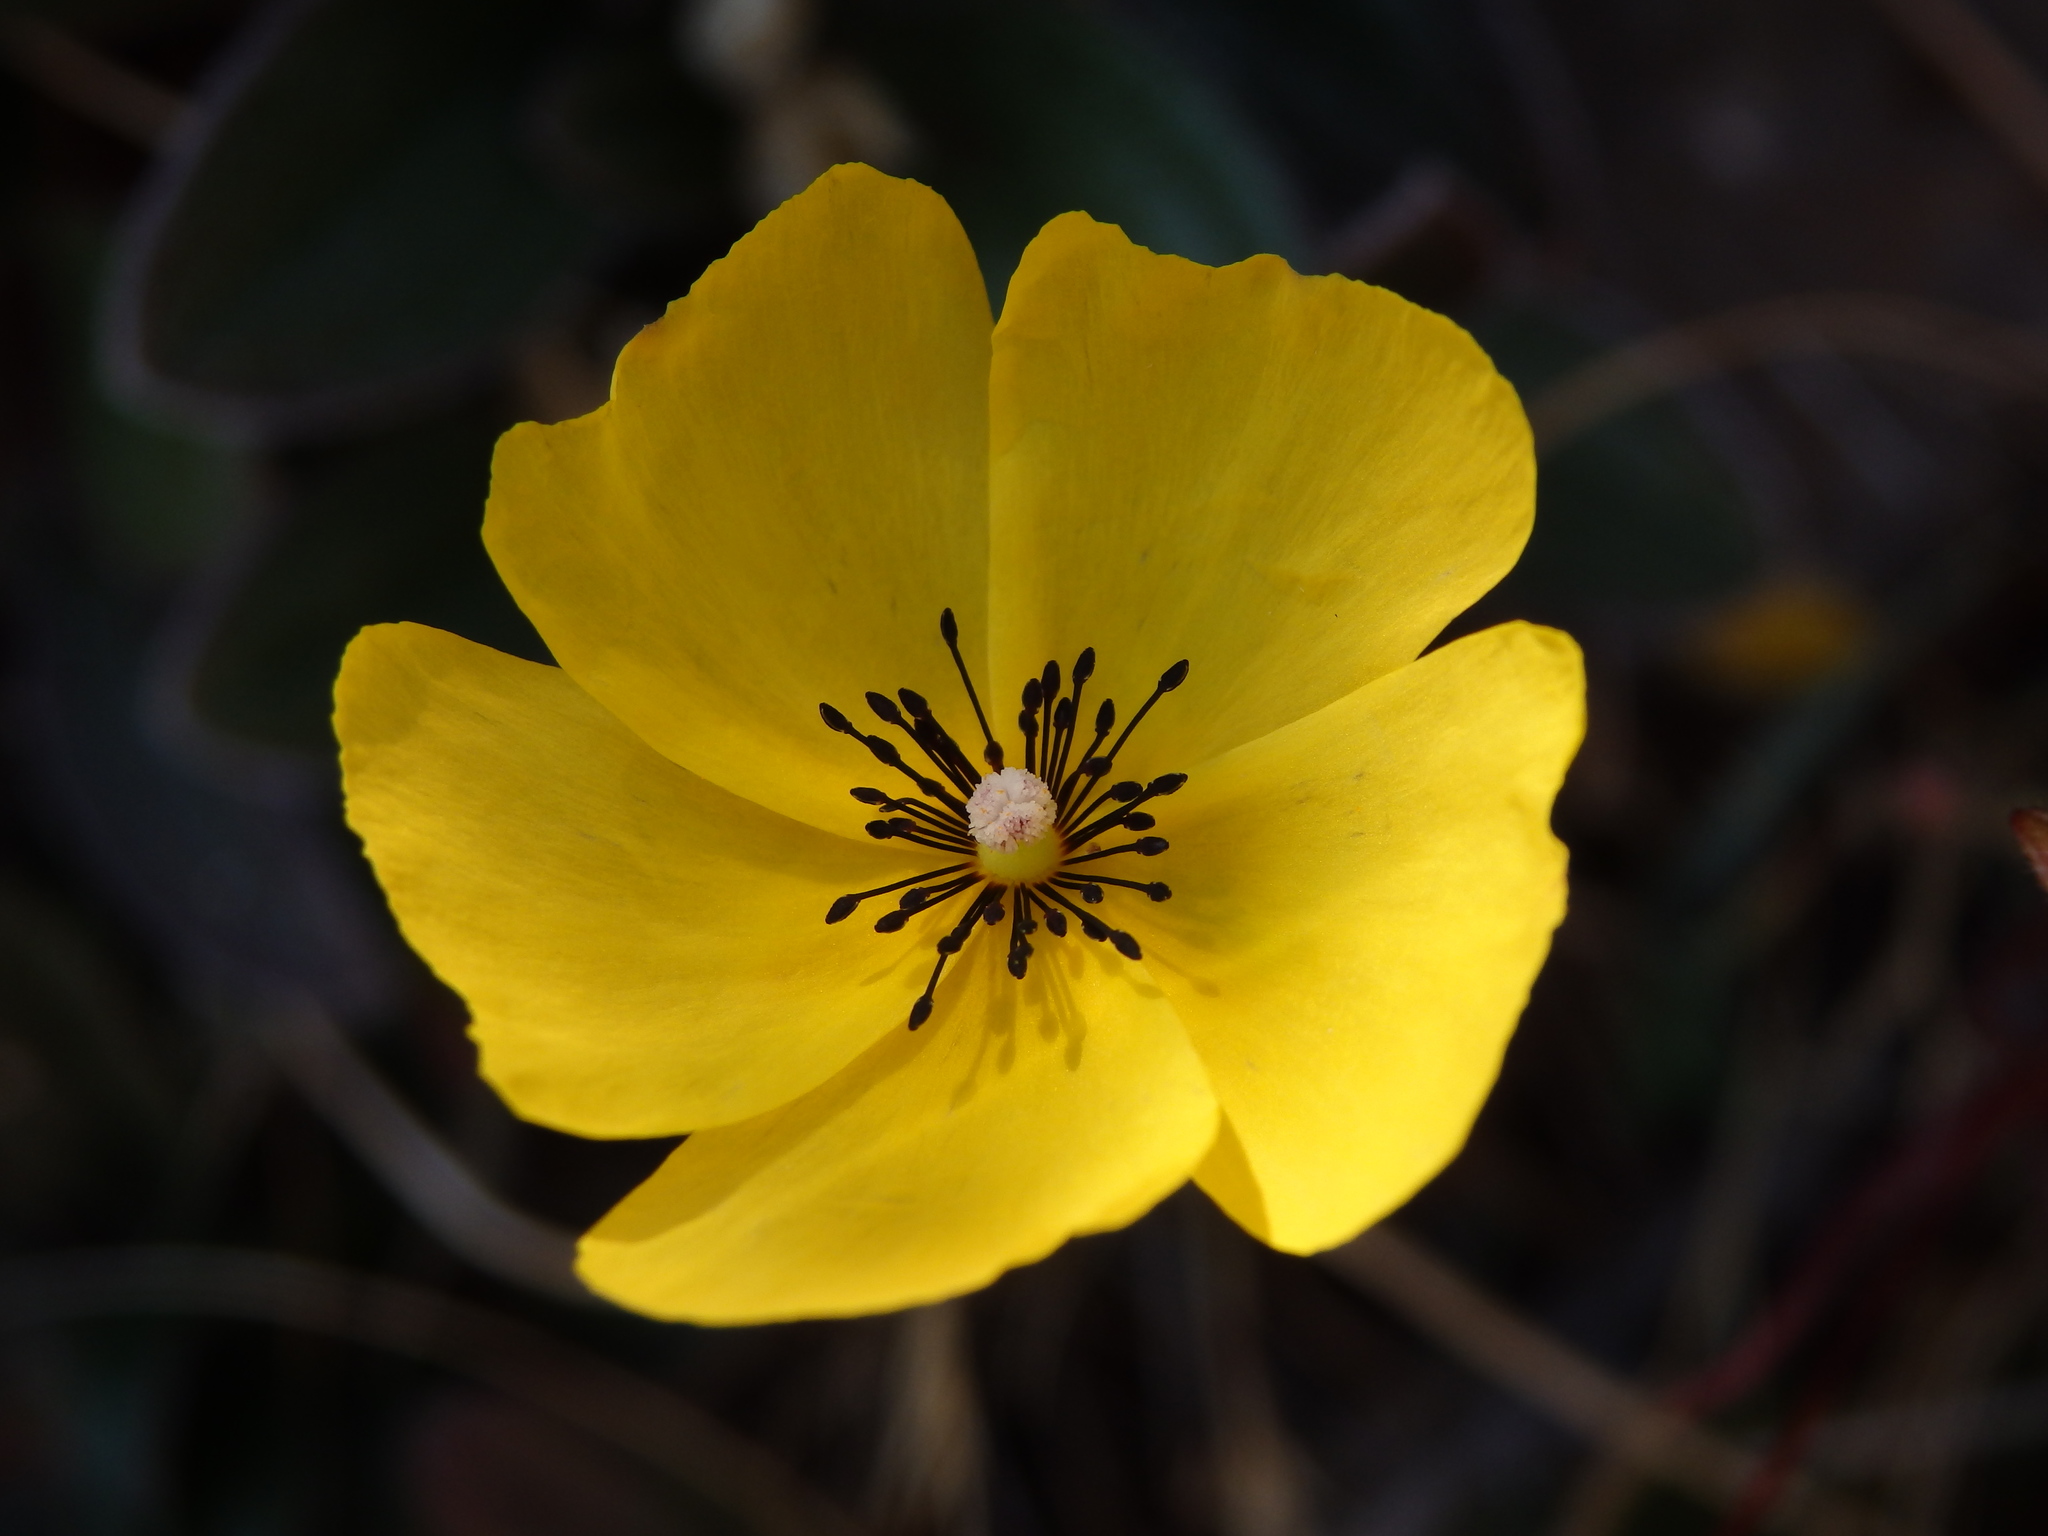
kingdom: Plantae
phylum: Tracheophyta
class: Magnoliopsida
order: Malvales
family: Cistaceae
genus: Tuberaria
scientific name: Tuberaria globulariifolia
